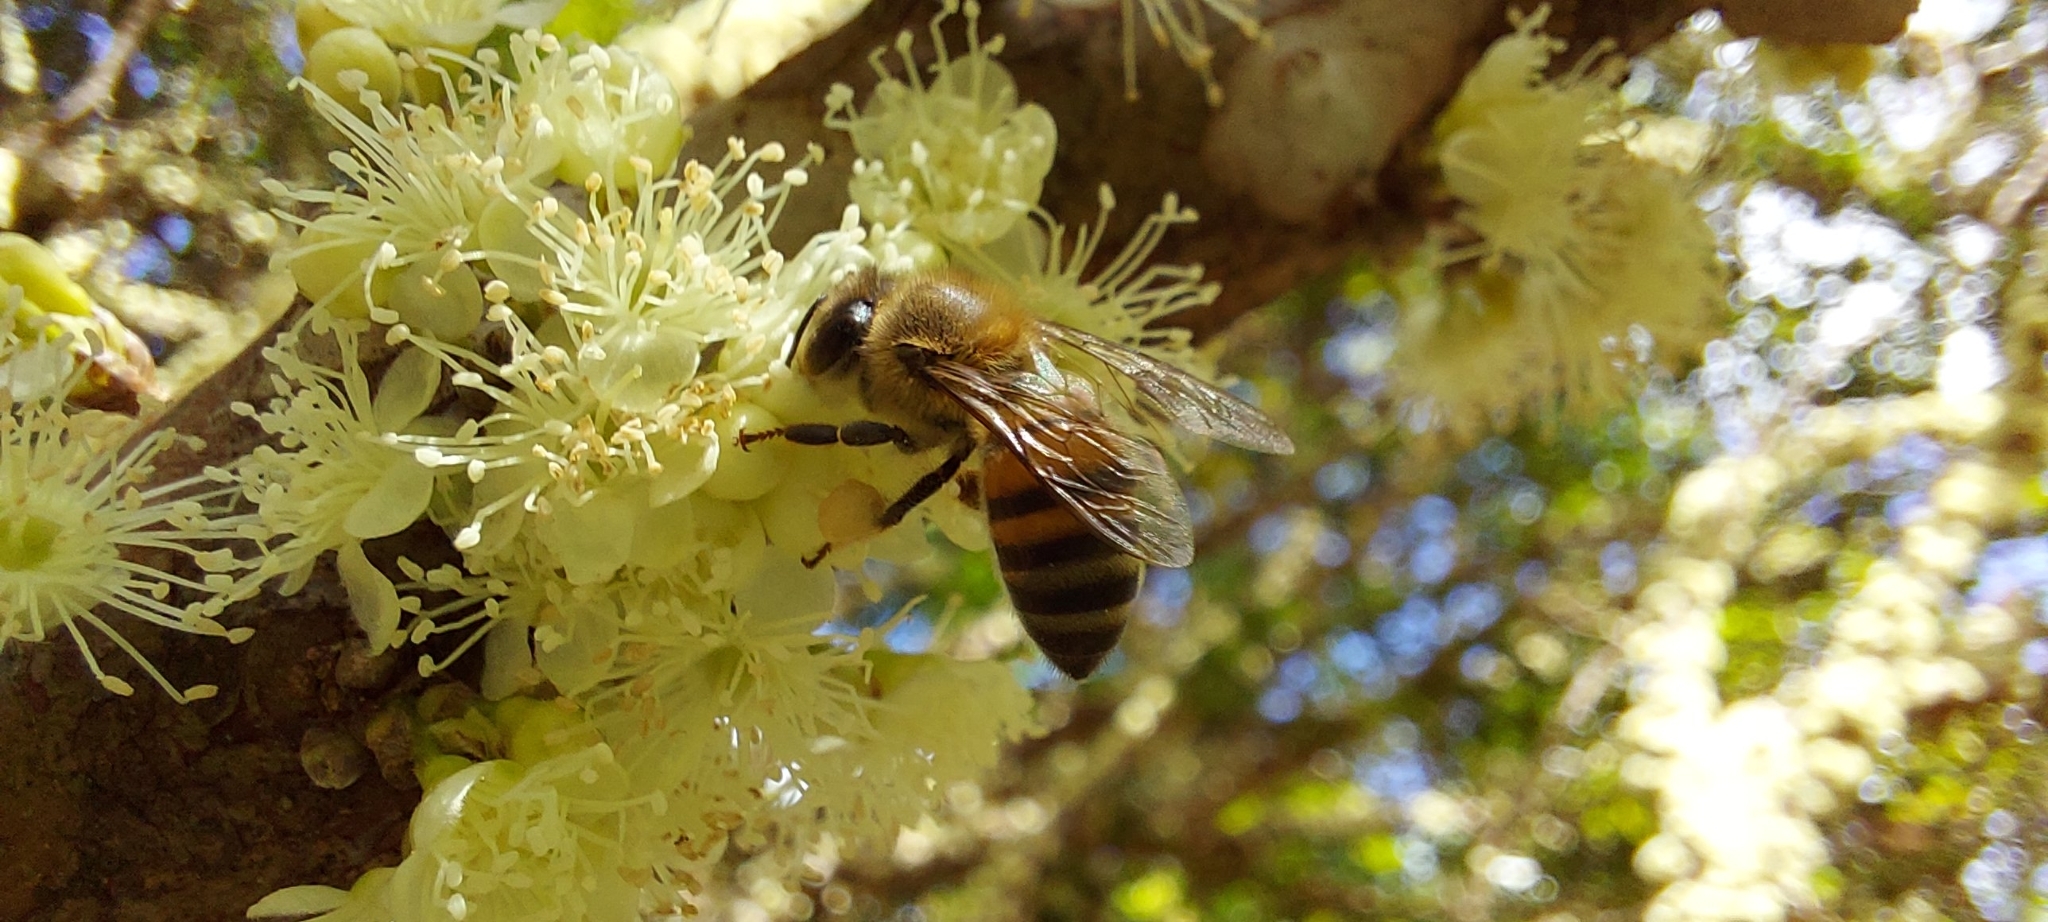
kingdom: Animalia
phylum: Arthropoda
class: Insecta
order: Hymenoptera
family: Apidae
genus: Apis
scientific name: Apis mellifera
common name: Honey bee
